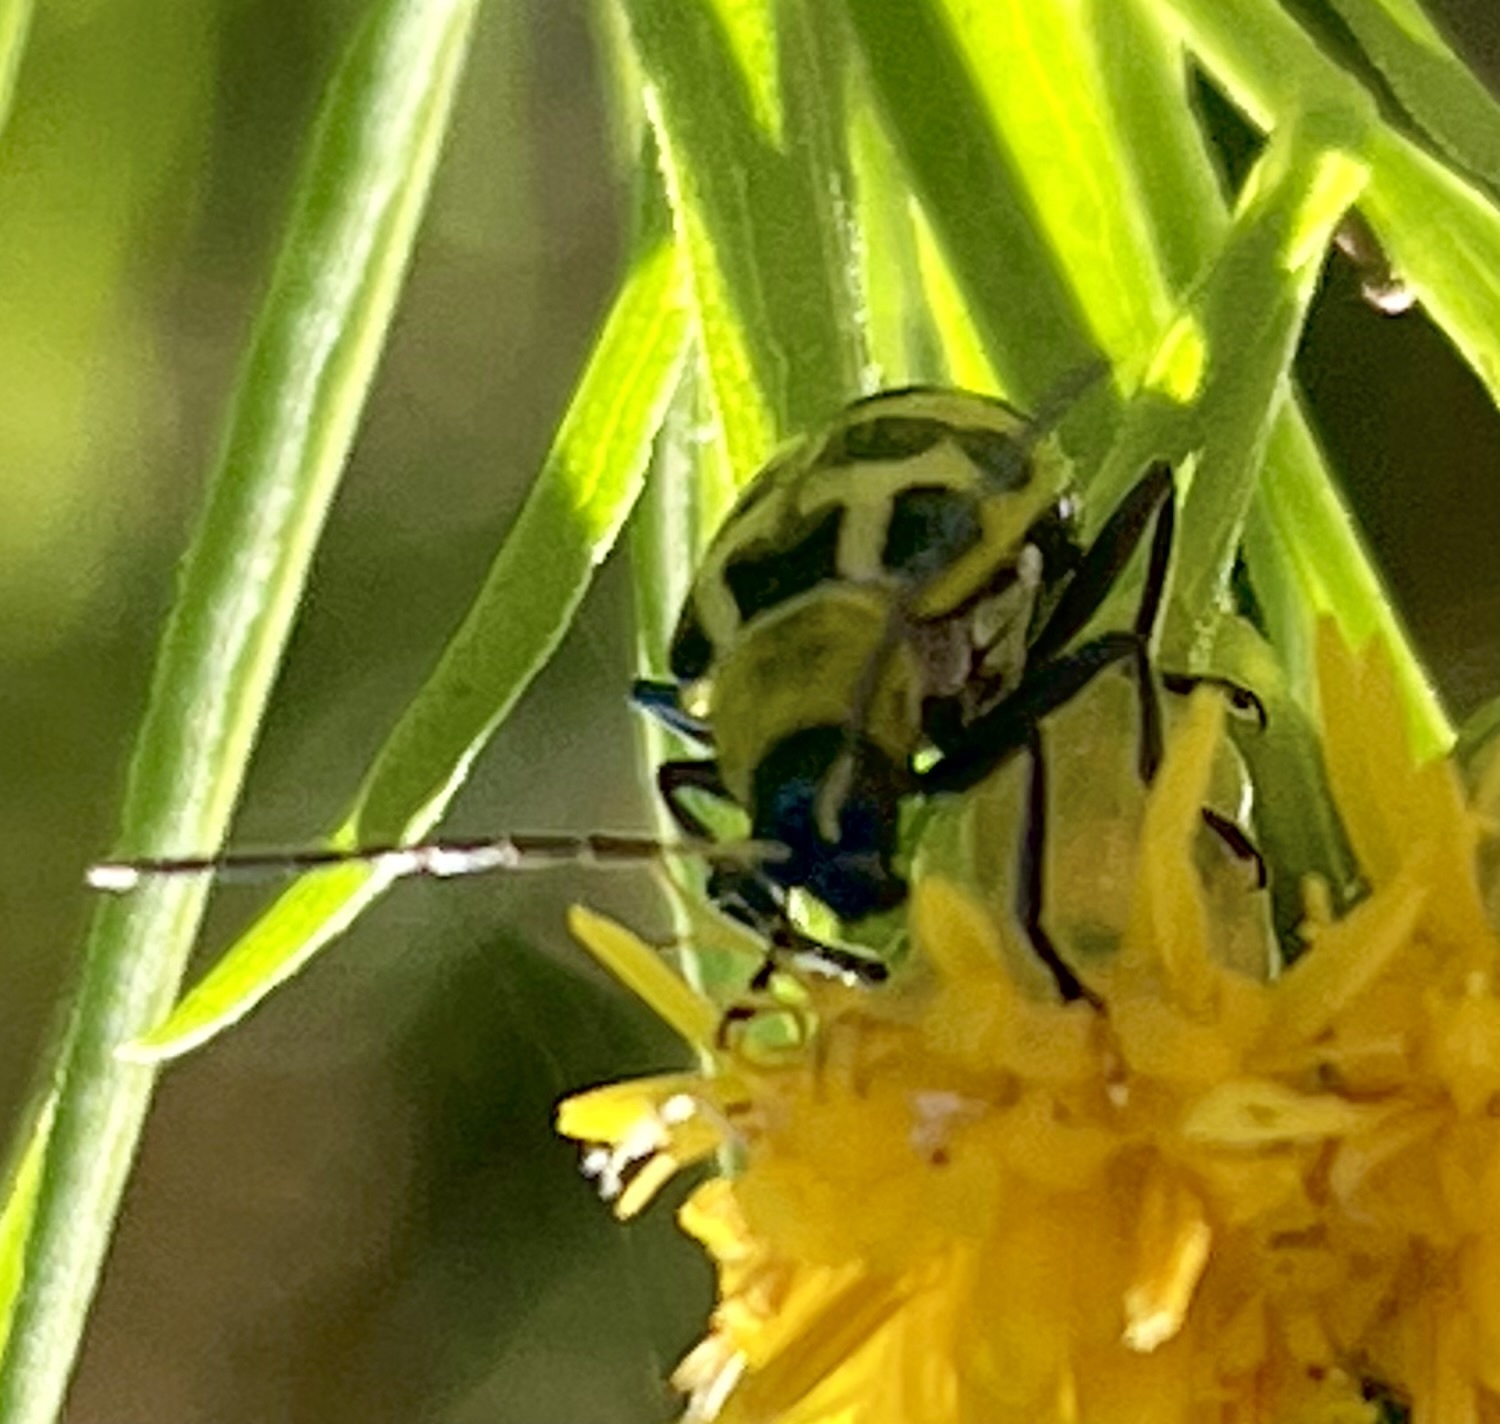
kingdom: Animalia
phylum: Arthropoda
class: Insecta
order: Coleoptera
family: Chrysomelidae
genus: Diabrotica
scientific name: Diabrotica undecimpunctata
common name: Spotted cucumber beetle
